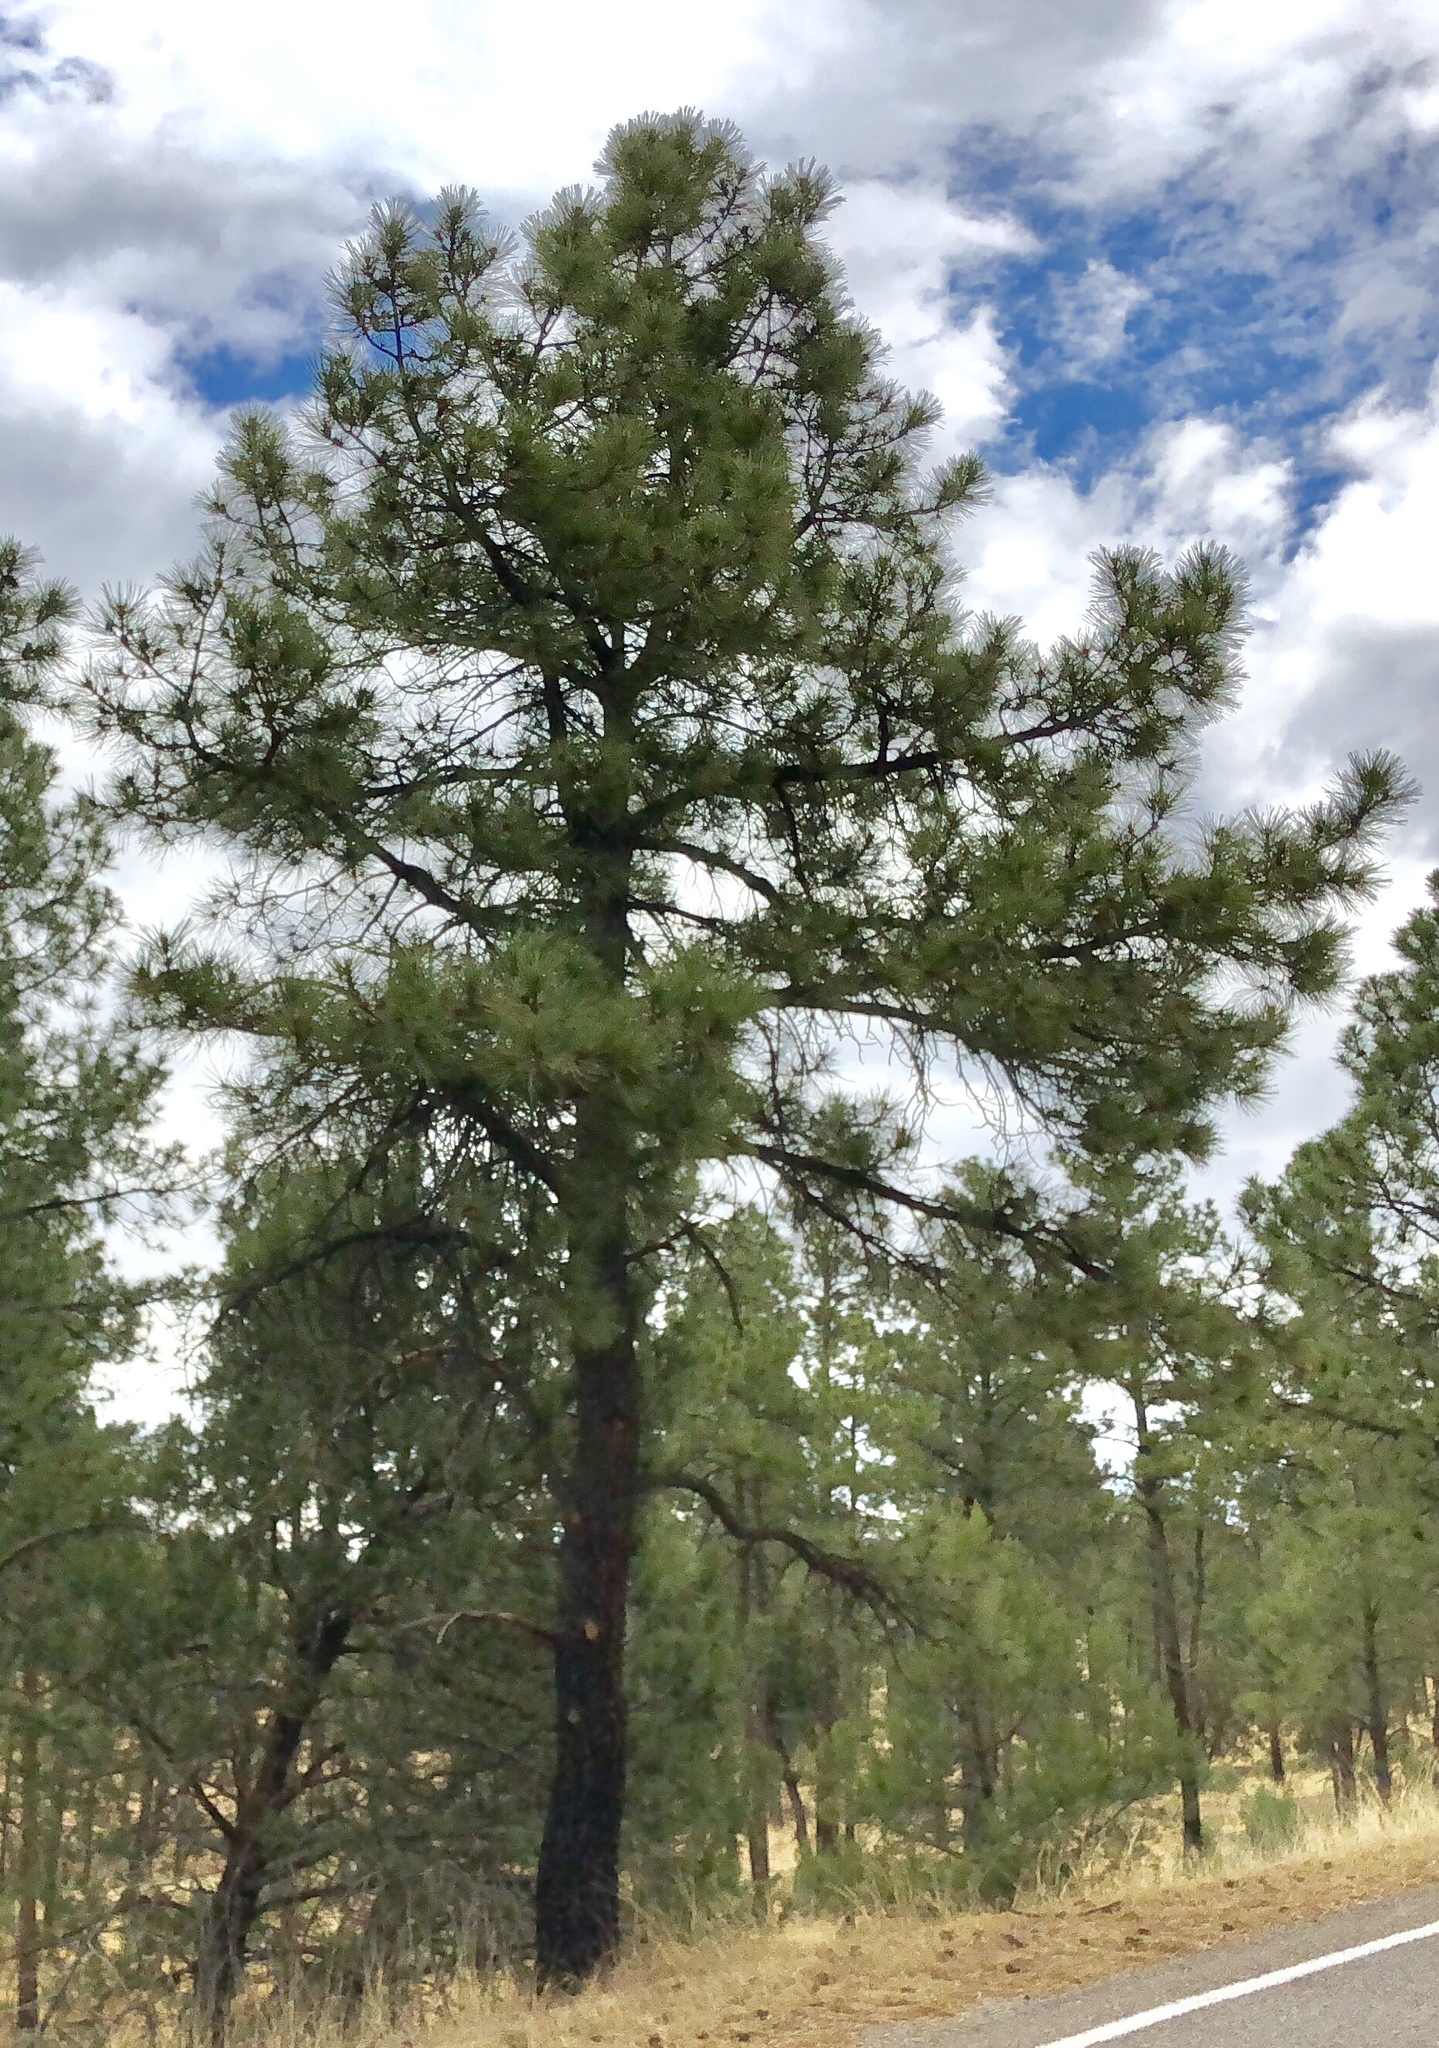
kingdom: Plantae
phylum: Tracheophyta
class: Pinopsida
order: Pinales
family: Pinaceae
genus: Pinus
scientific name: Pinus ponderosa
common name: Western yellow-pine
